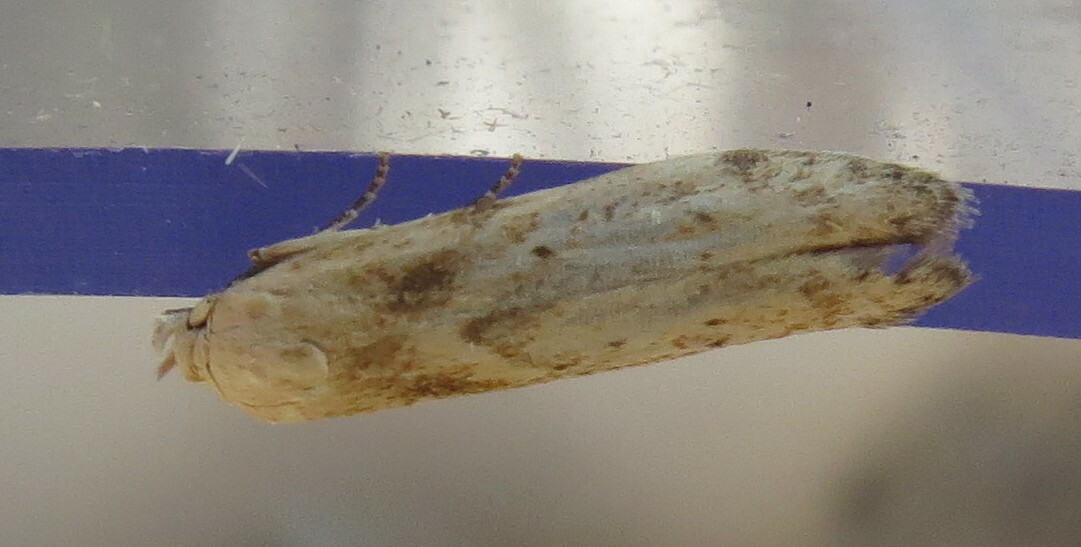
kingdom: Animalia
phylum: Arthropoda
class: Insecta
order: Lepidoptera
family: Blastobasidae
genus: Blastobasis
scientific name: Blastobasis lacticolella
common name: London dowd
